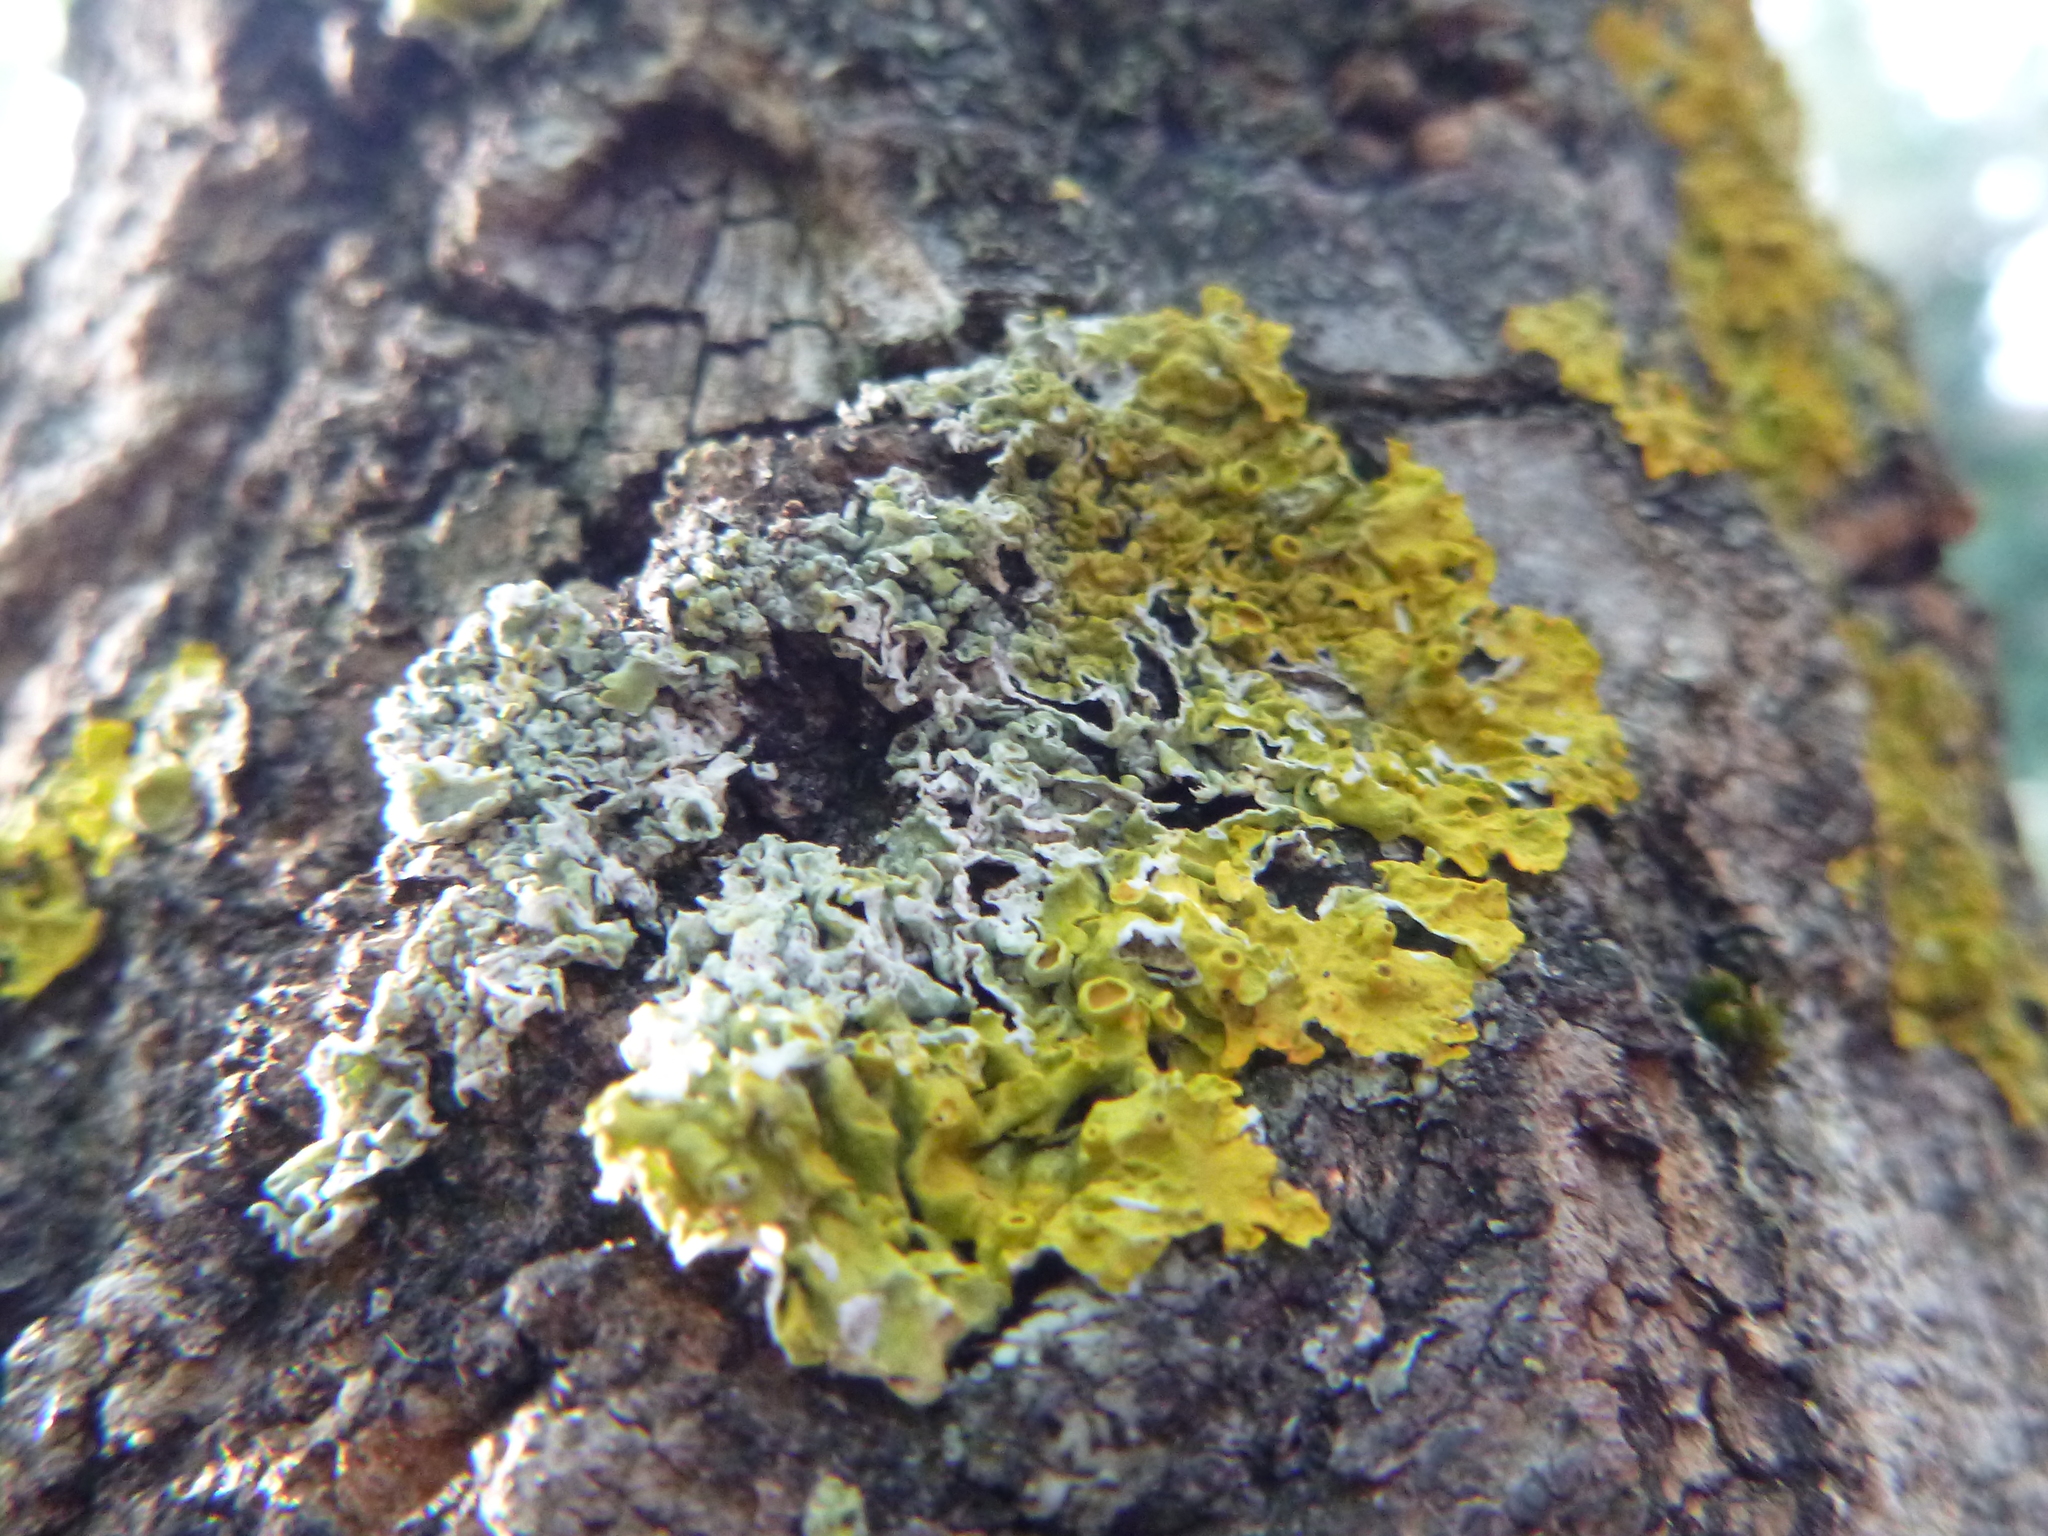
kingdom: Fungi
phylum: Ascomycota
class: Lecanoromycetes
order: Teloschistales
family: Teloschistaceae
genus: Xanthoria
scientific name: Xanthoria parietina
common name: Common orange lichen
